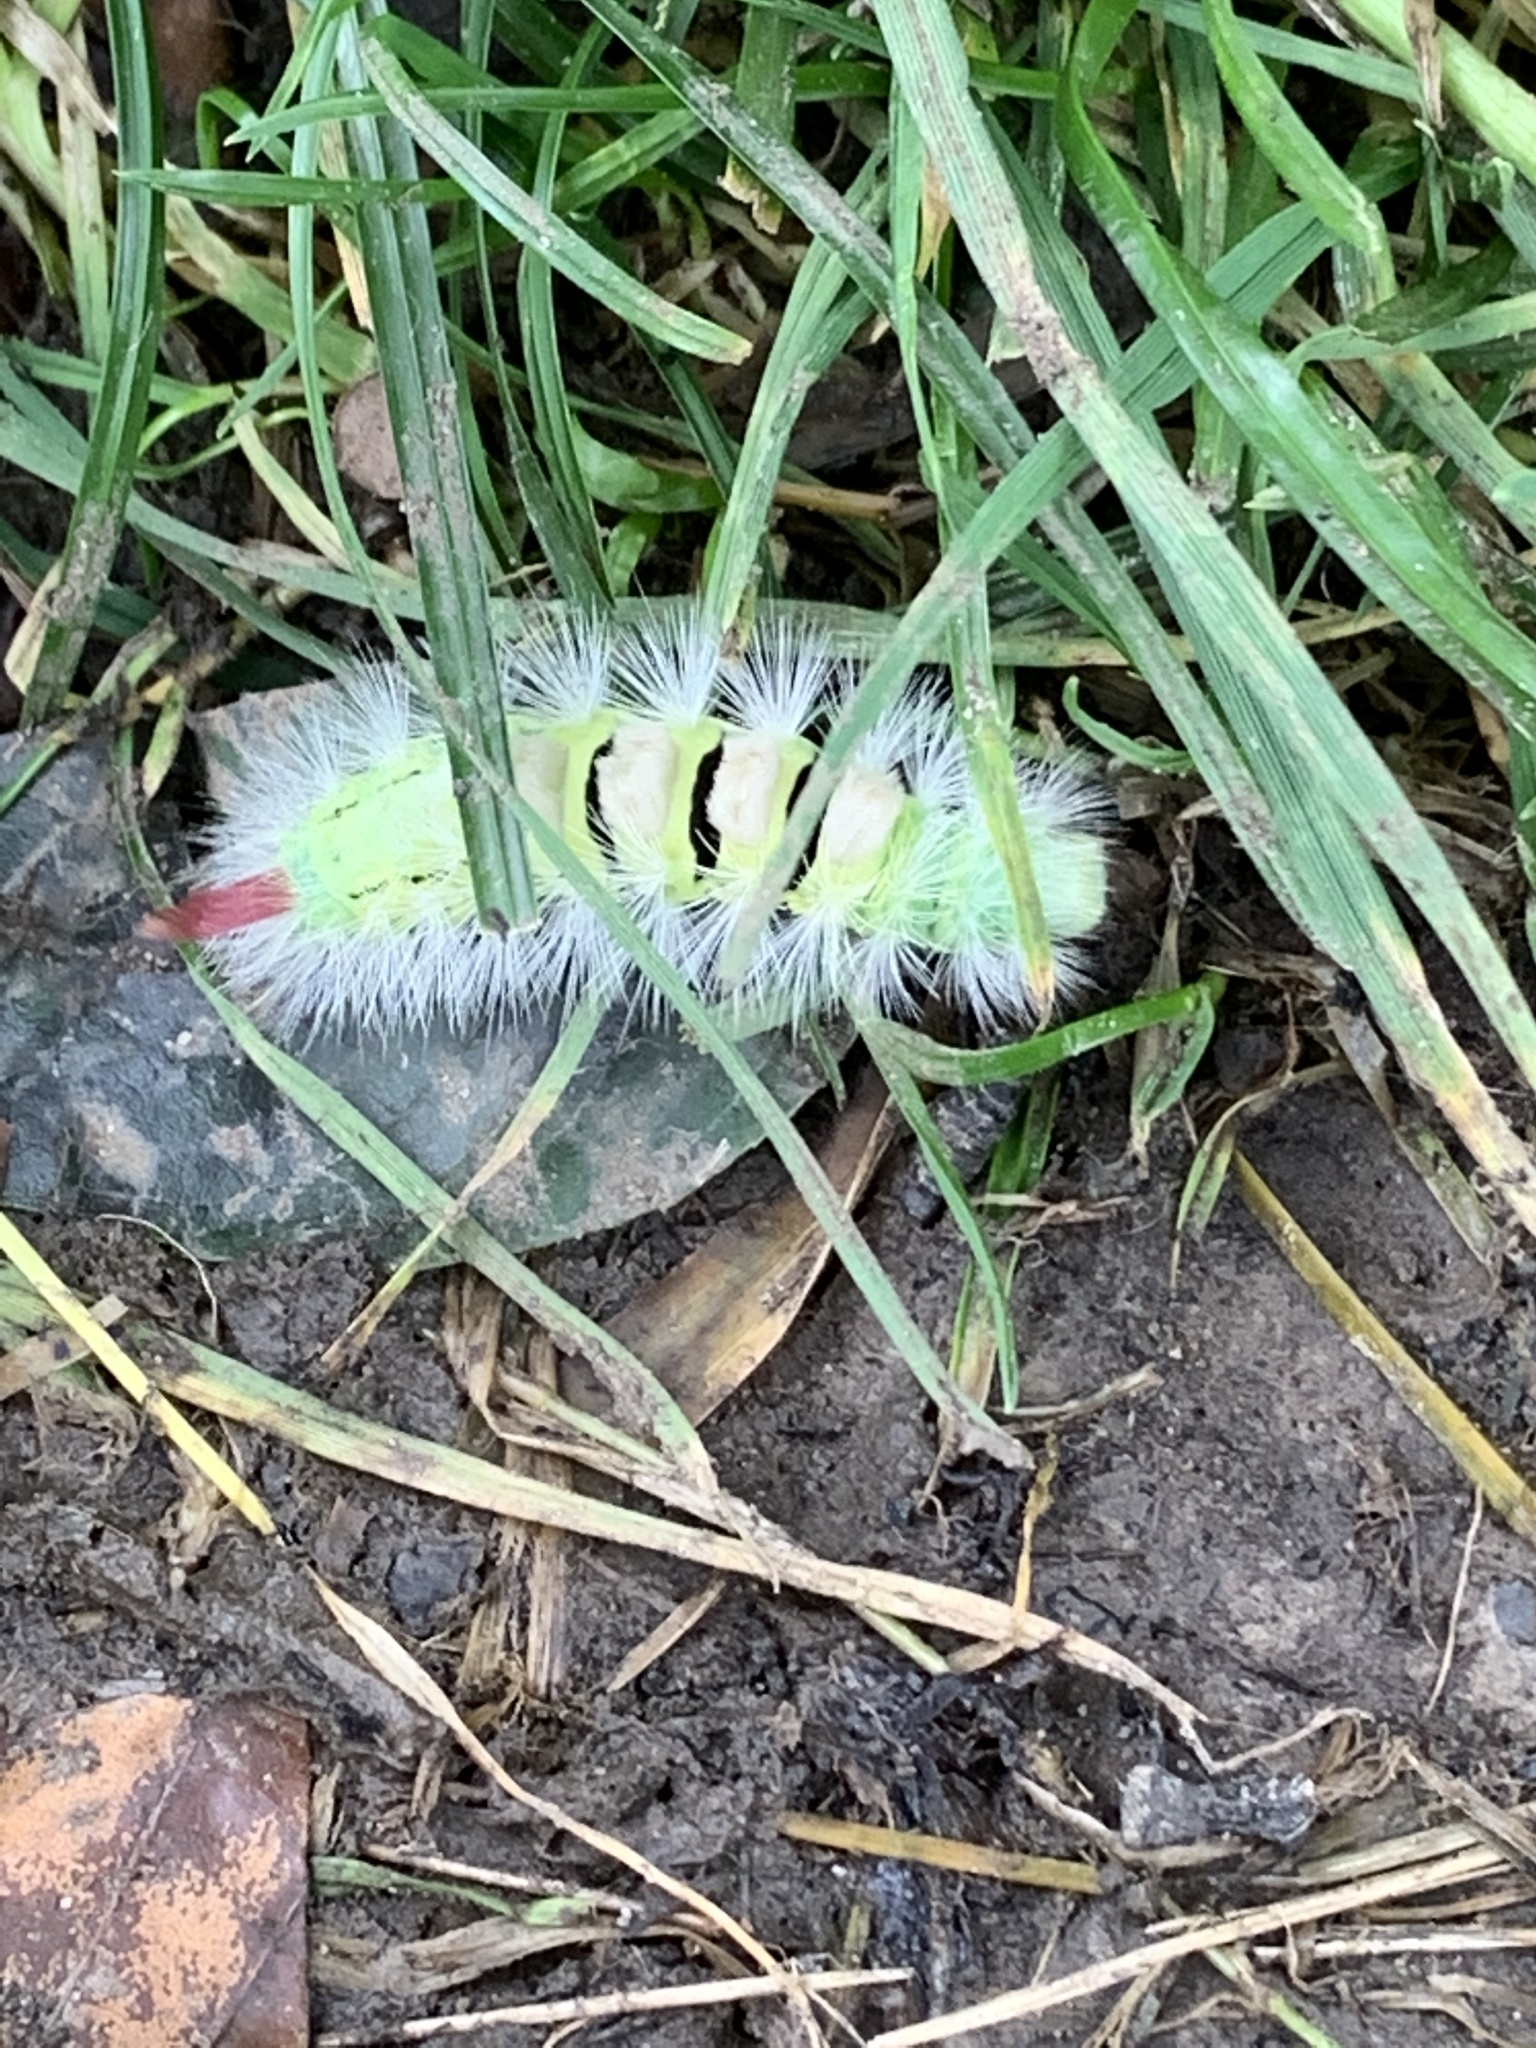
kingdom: Animalia
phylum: Arthropoda
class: Insecta
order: Lepidoptera
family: Erebidae
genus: Calliteara
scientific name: Calliteara pudibunda
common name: Pale tussock
